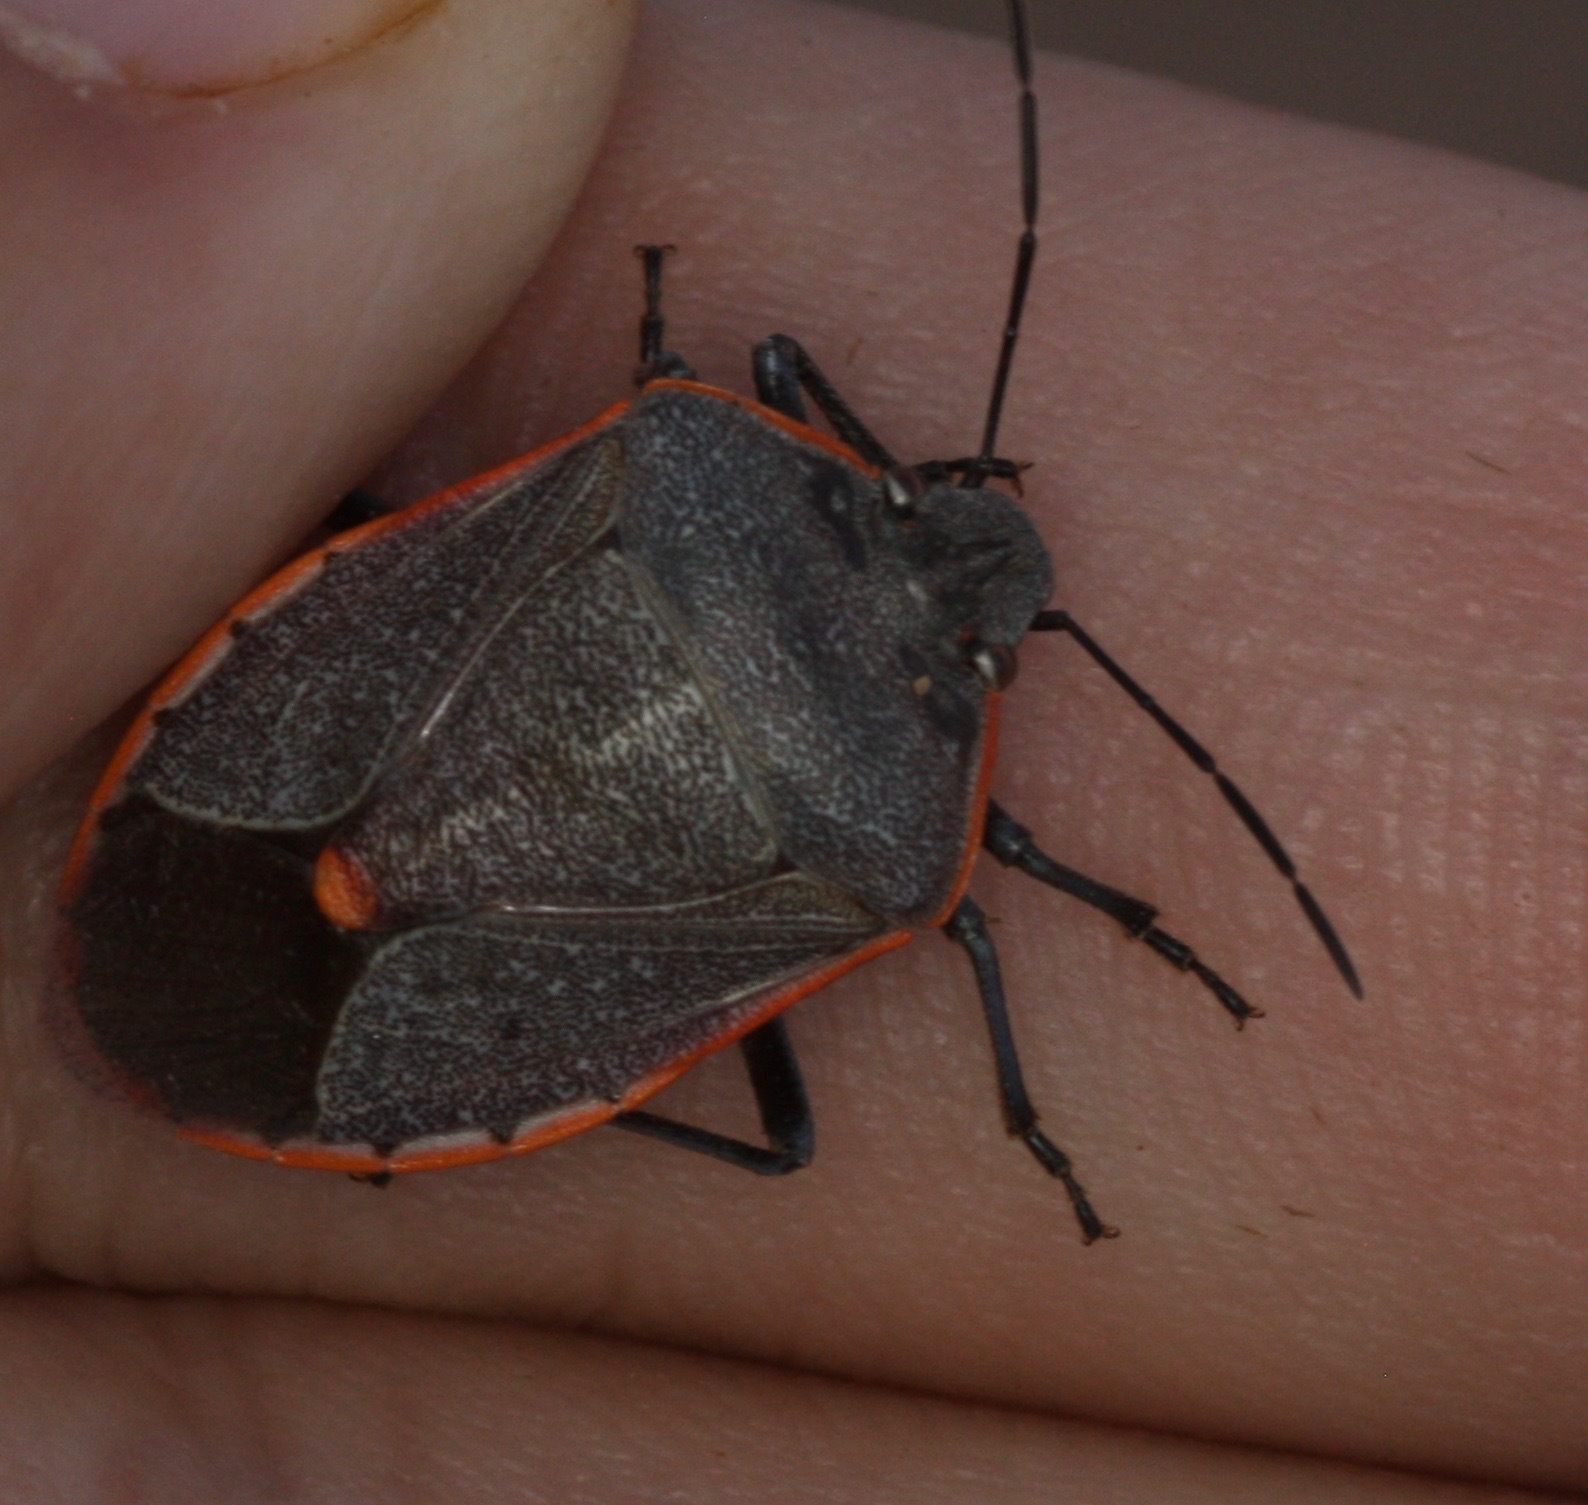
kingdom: Animalia
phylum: Arthropoda
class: Insecta
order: Hemiptera
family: Pentatomidae
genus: Chlorochroa
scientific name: Chlorochroa ligata
